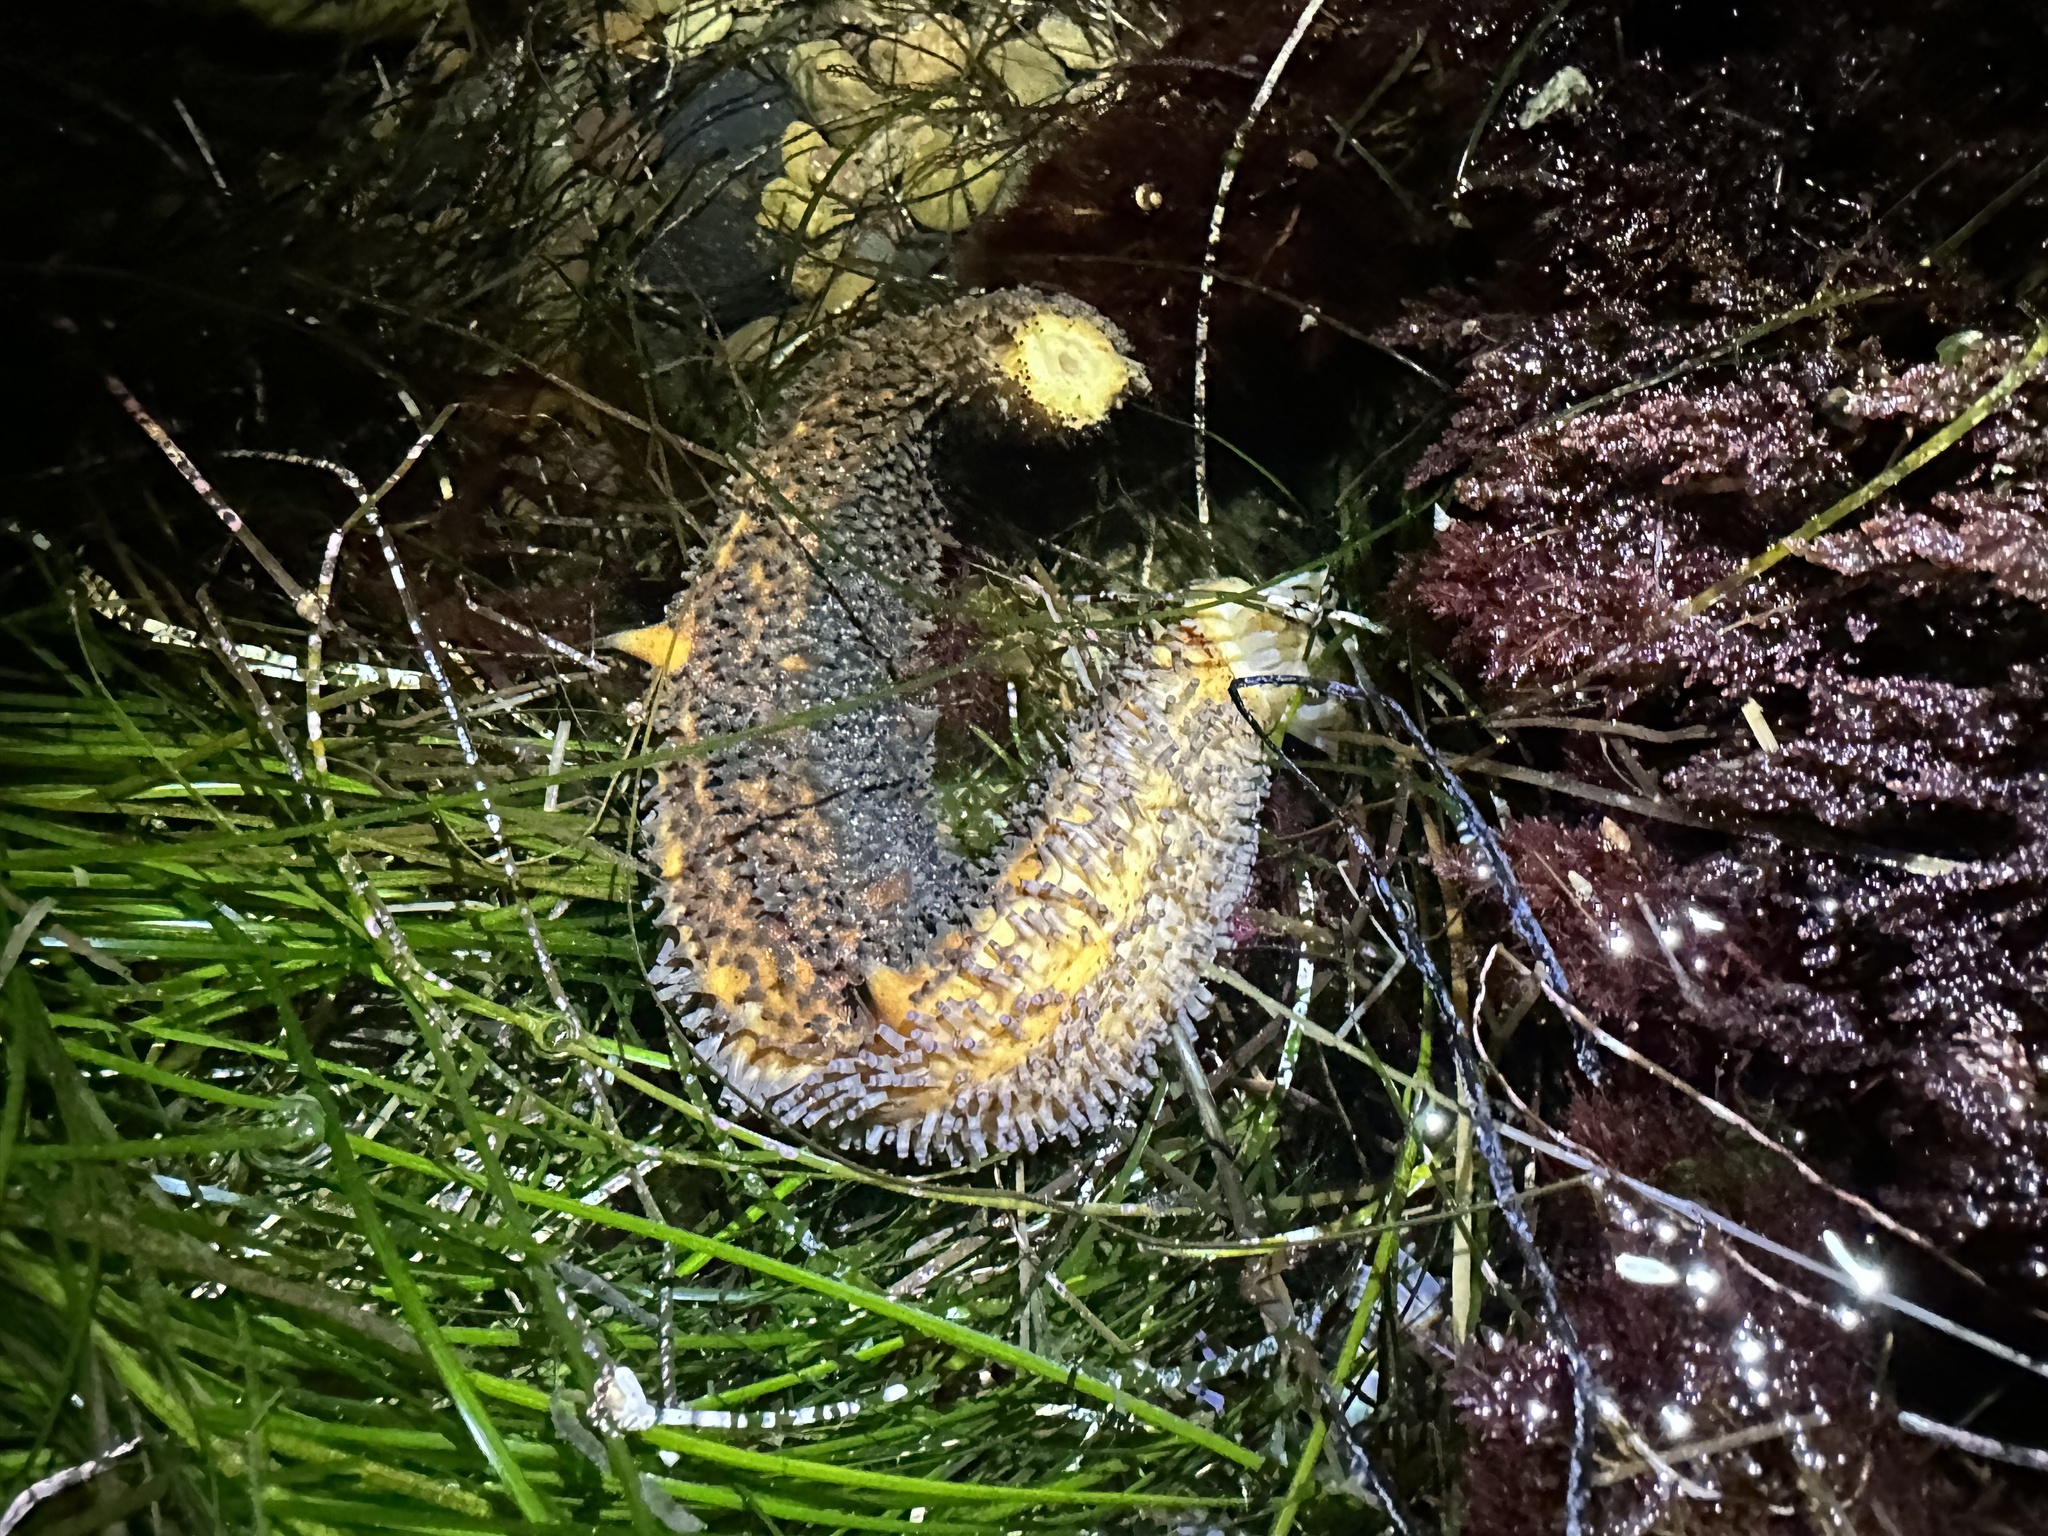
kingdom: Animalia
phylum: Echinodermata
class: Holothuroidea
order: Synallactida
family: Stichopodidae
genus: Apostichopus
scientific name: Apostichopus parvimensis
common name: Warty sea cucumber
